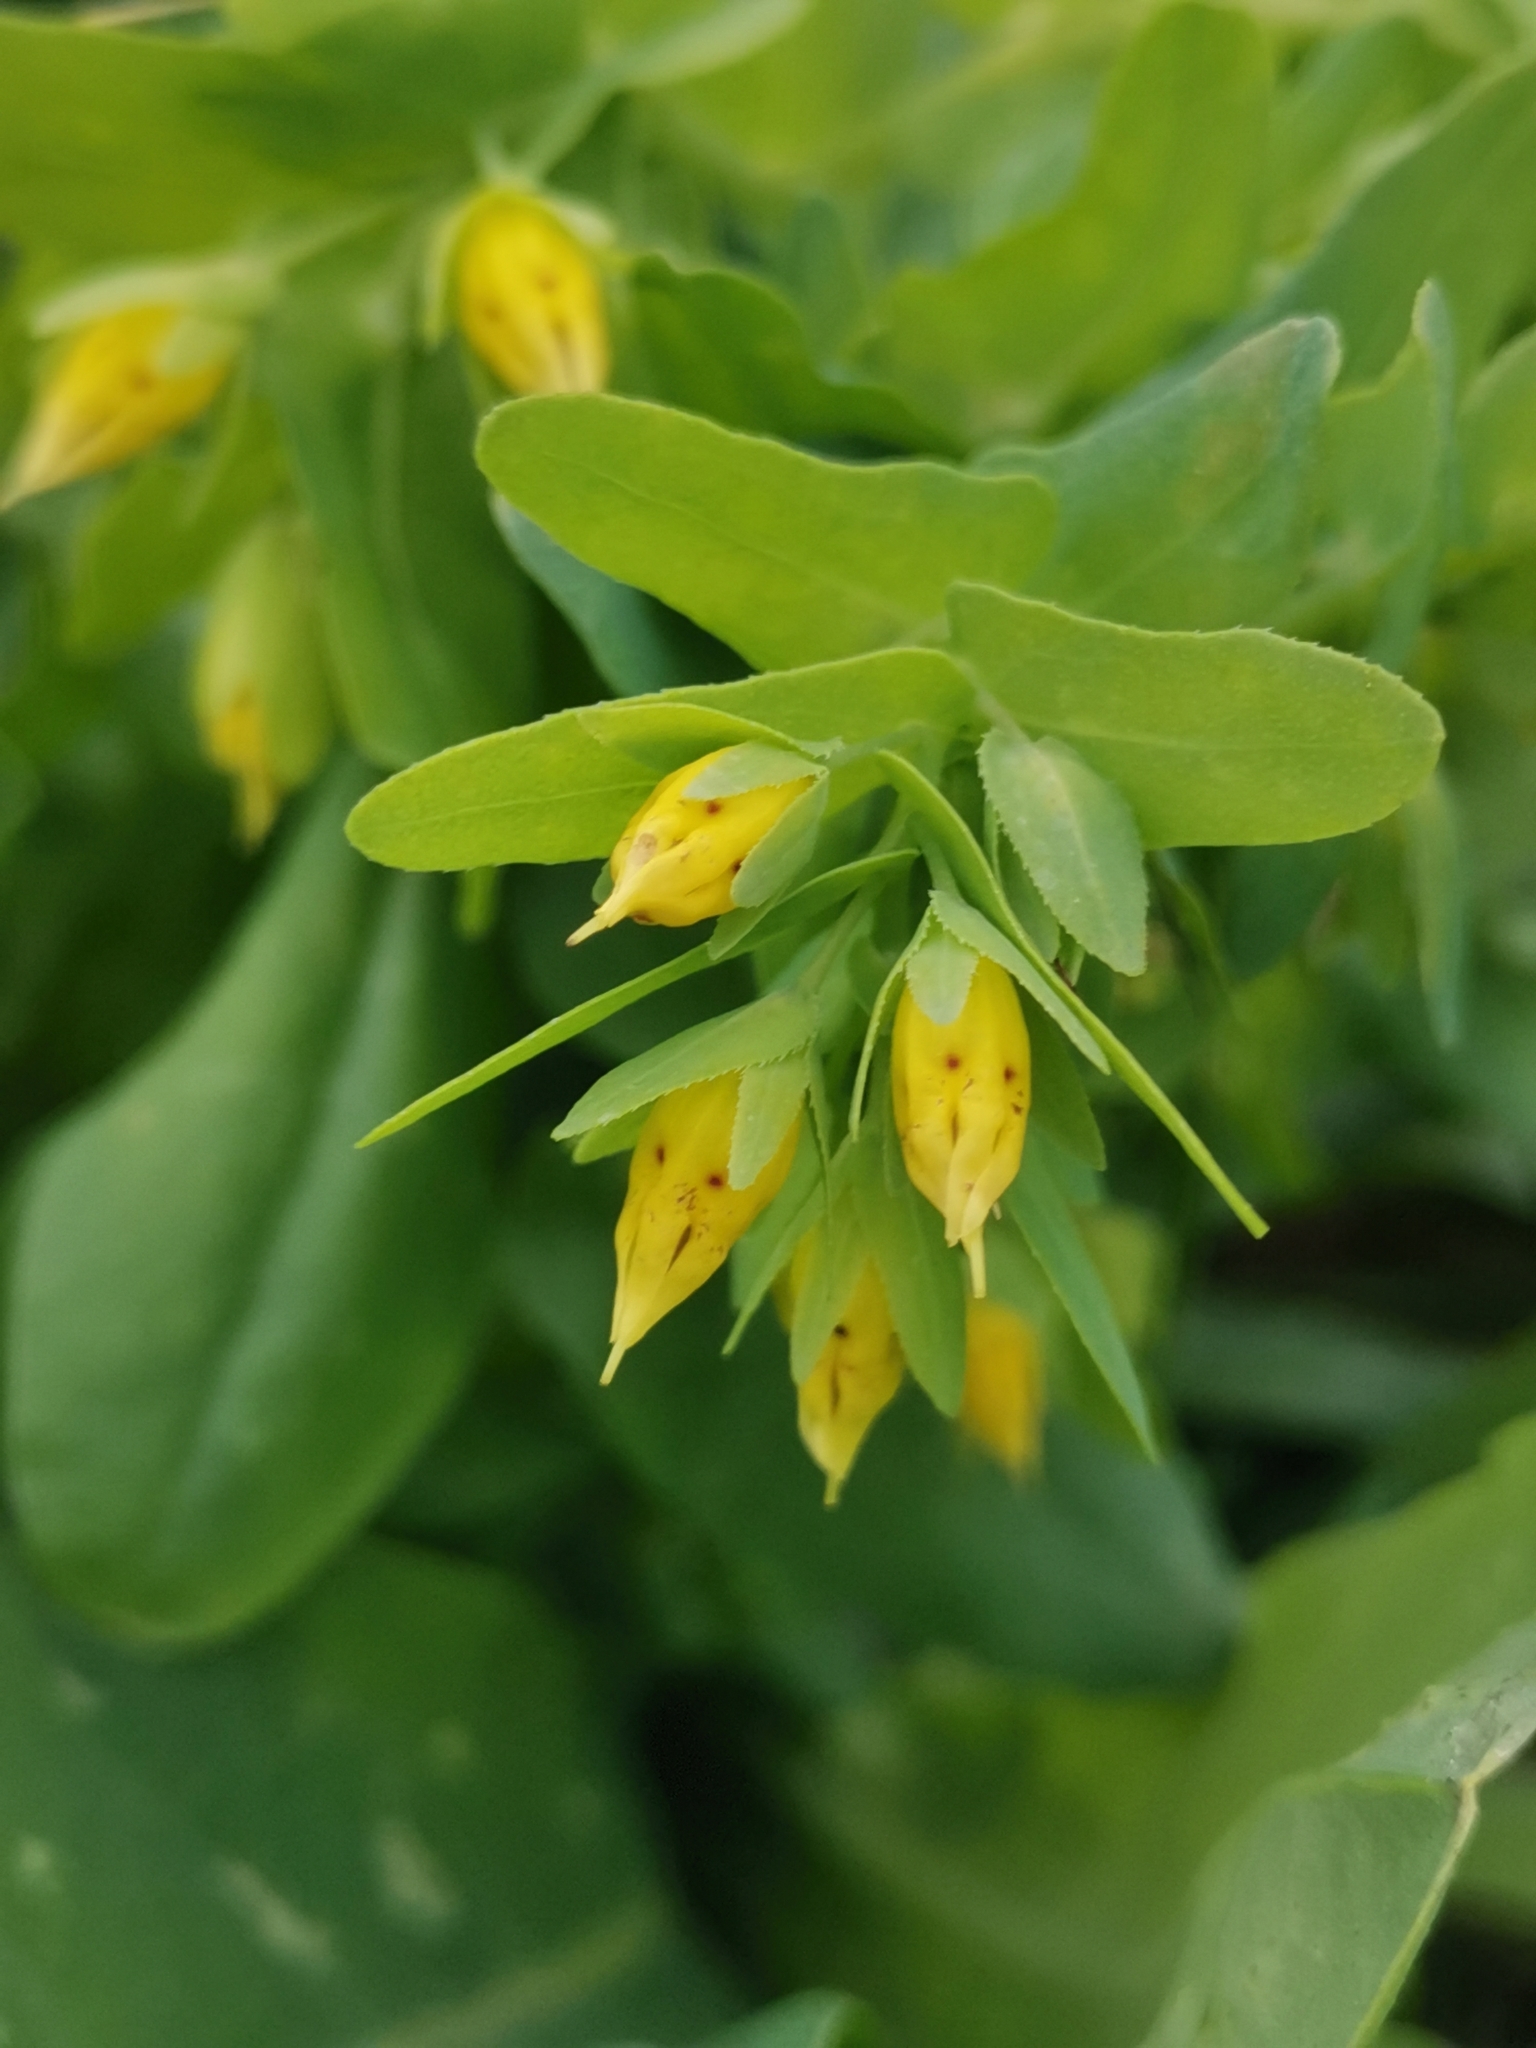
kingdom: Plantae
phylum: Tracheophyta
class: Magnoliopsida
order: Boraginales
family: Boraginaceae
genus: Cerinthe
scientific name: Cerinthe minor
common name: Lesser honeywort
